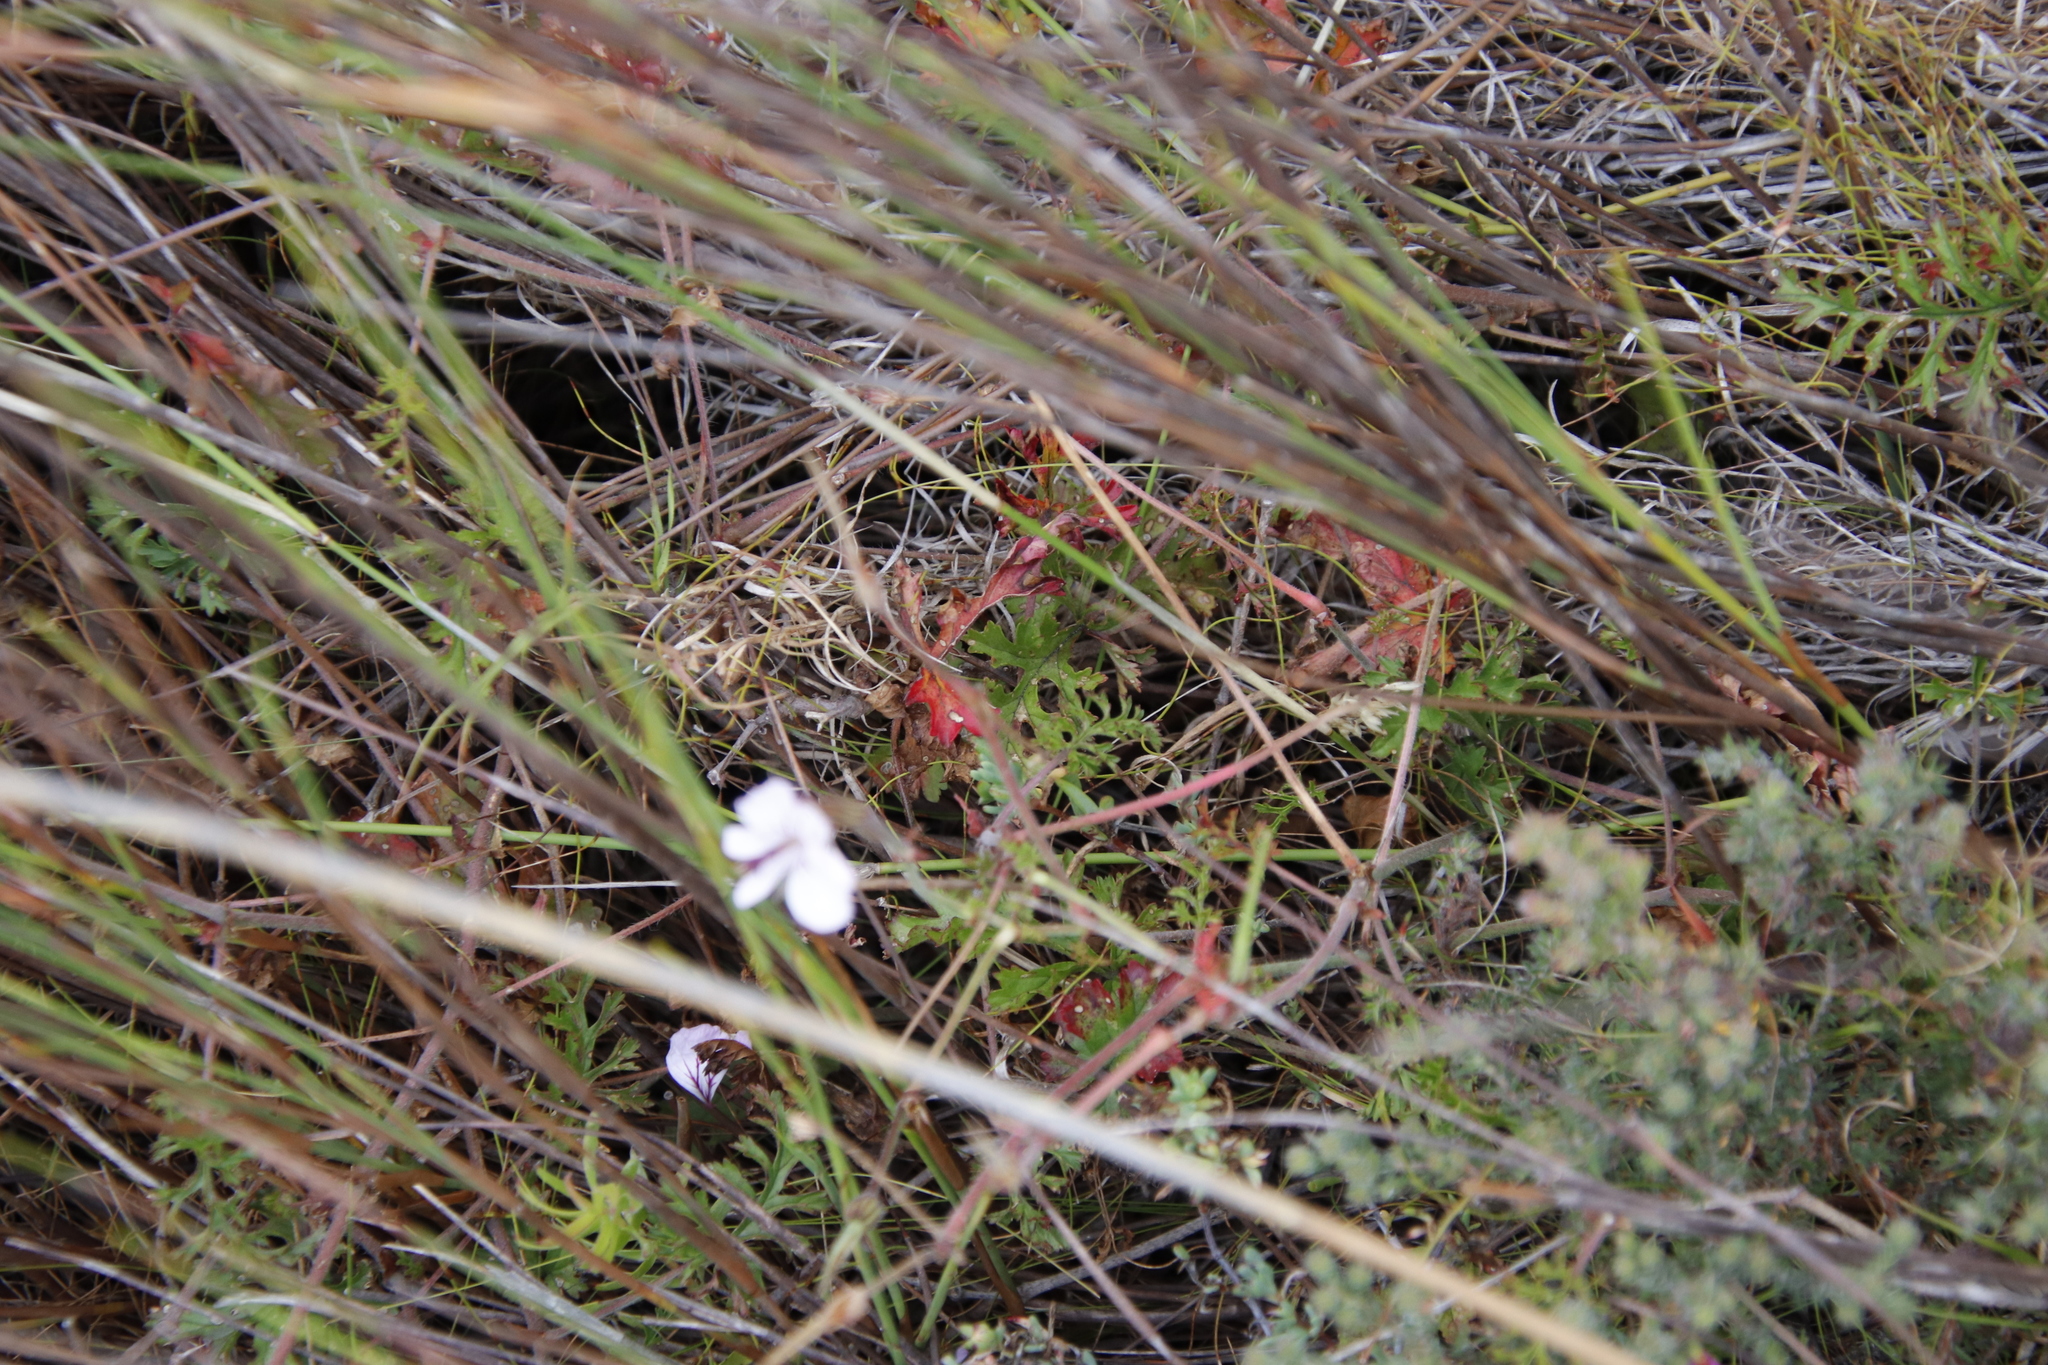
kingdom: Plantae
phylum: Tracheophyta
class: Magnoliopsida
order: Geraniales
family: Geraniaceae
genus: Pelargonium
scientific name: Pelargonium longicaule
